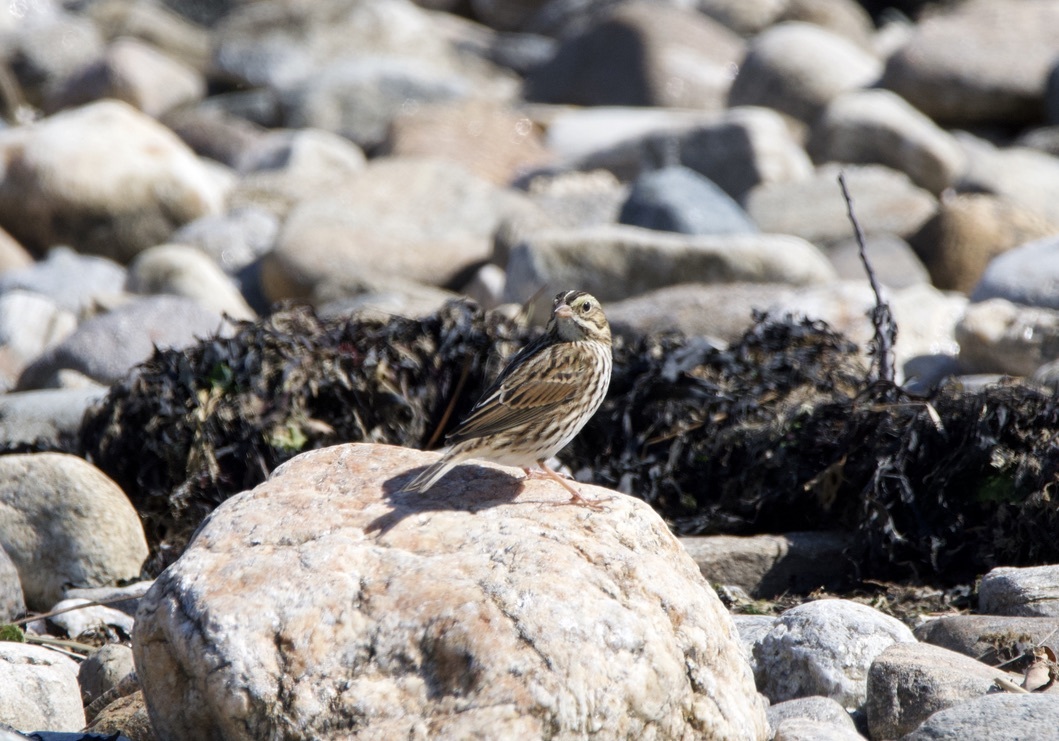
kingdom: Animalia
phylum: Chordata
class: Aves
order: Passeriformes
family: Passerellidae
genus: Passerculus
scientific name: Passerculus sandwichensis
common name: Savannah sparrow
